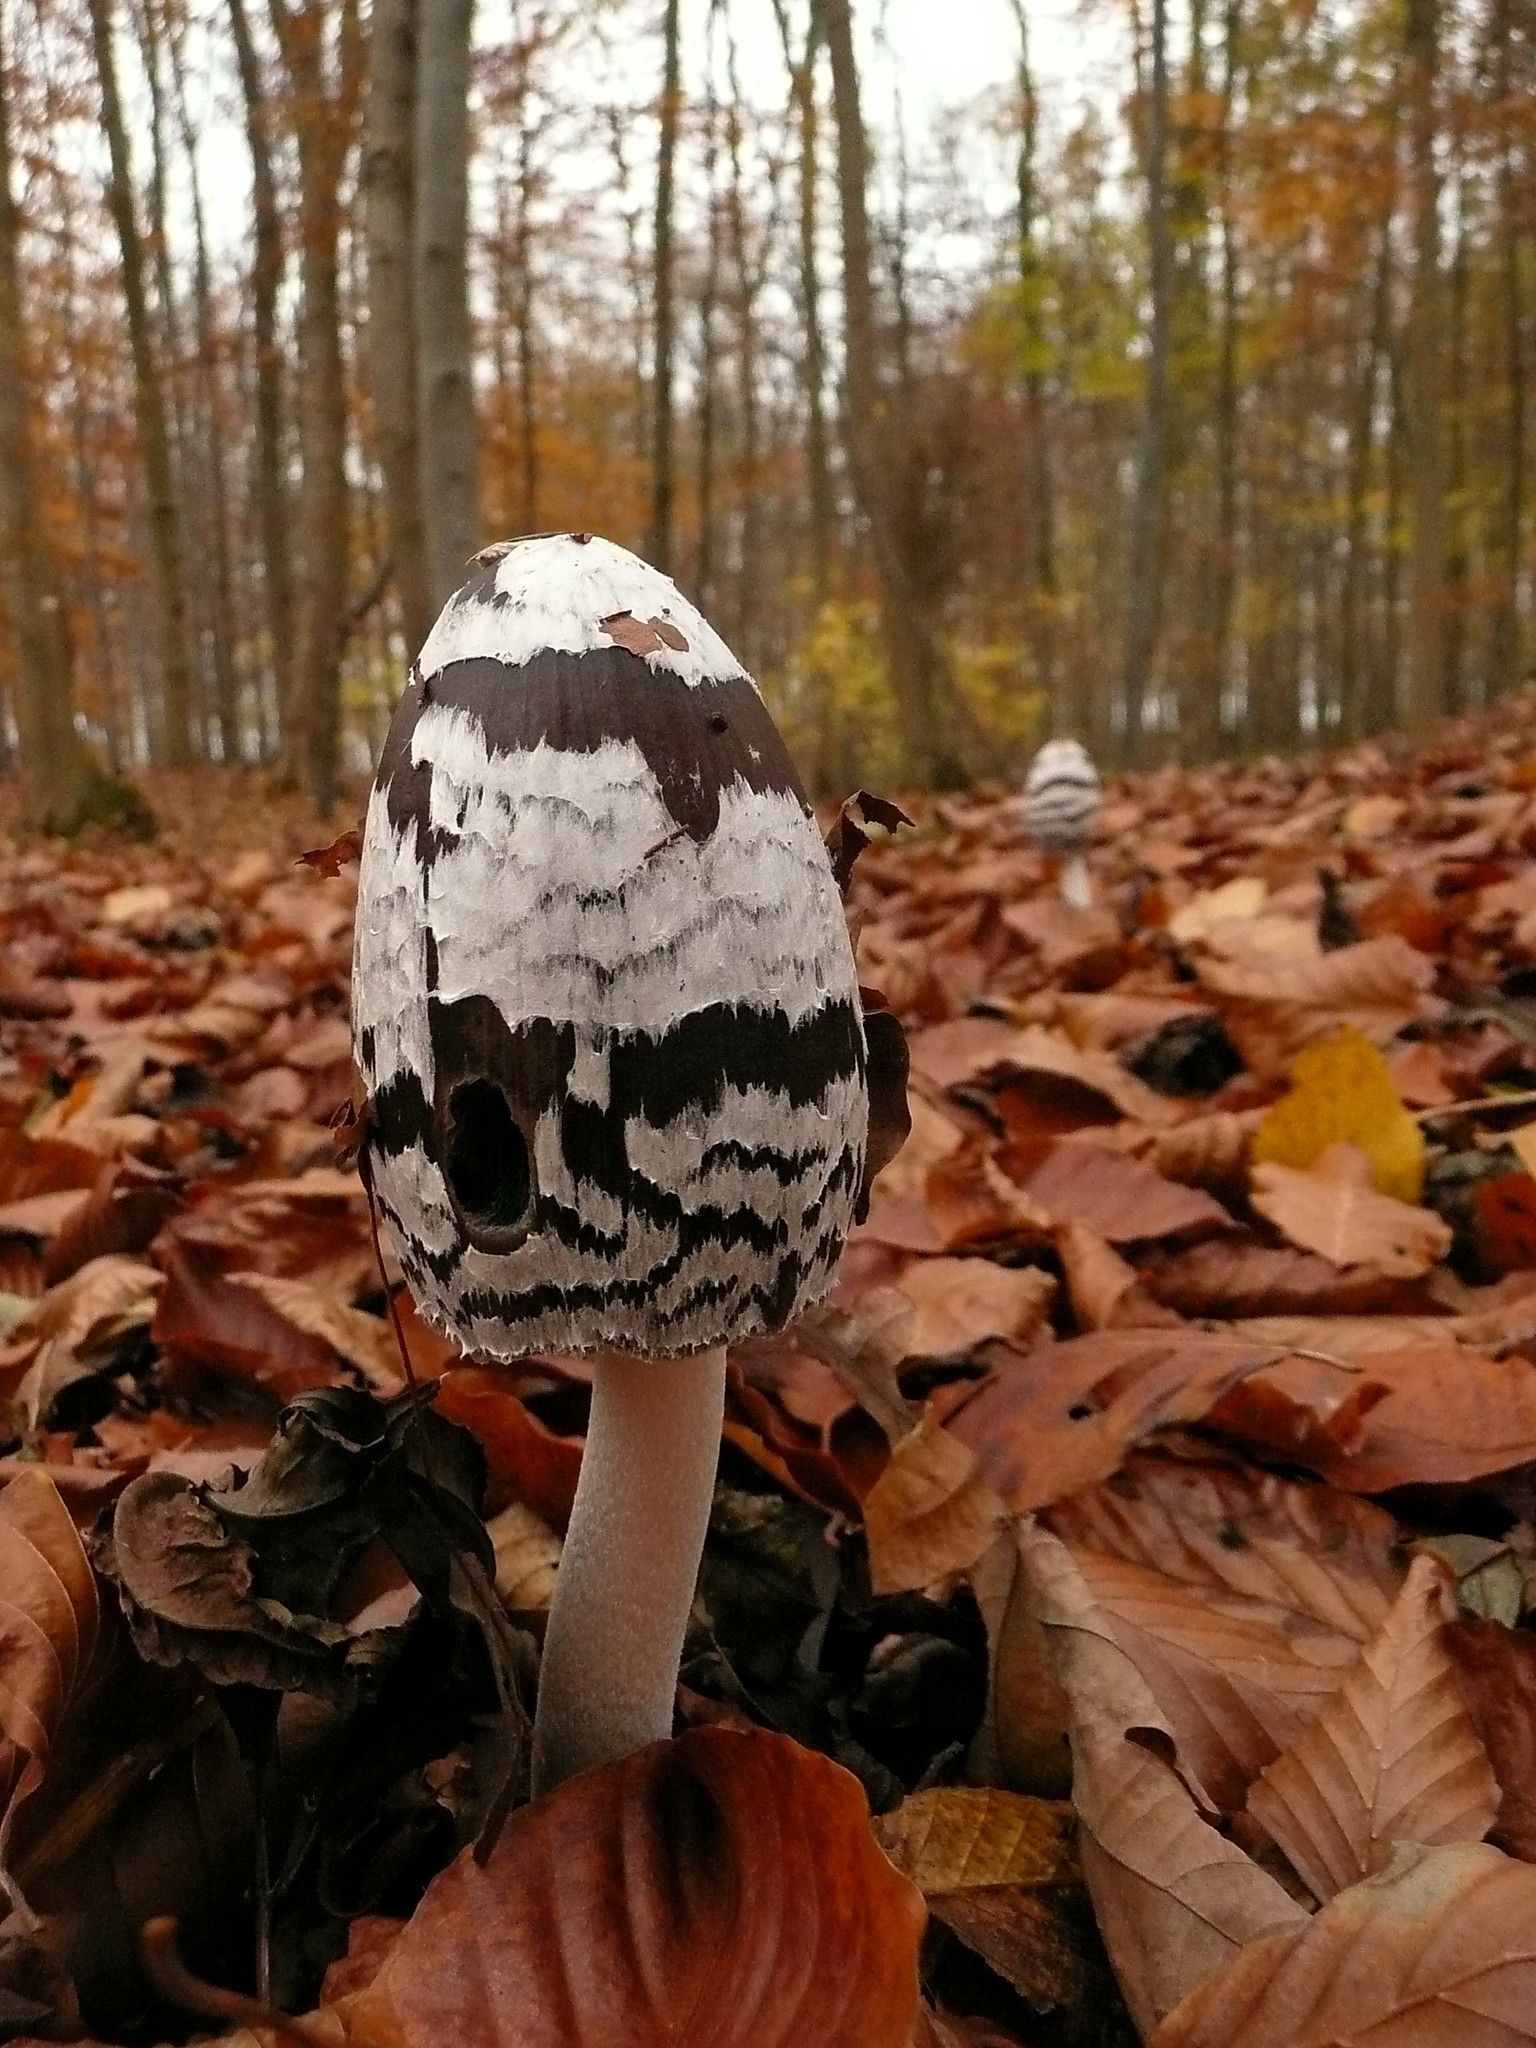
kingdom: Fungi
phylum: Basidiomycota
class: Agaricomycetes
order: Agaricales
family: Psathyrellaceae
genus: Coprinopsis
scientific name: Coprinopsis picacea
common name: Magpie inkcap
